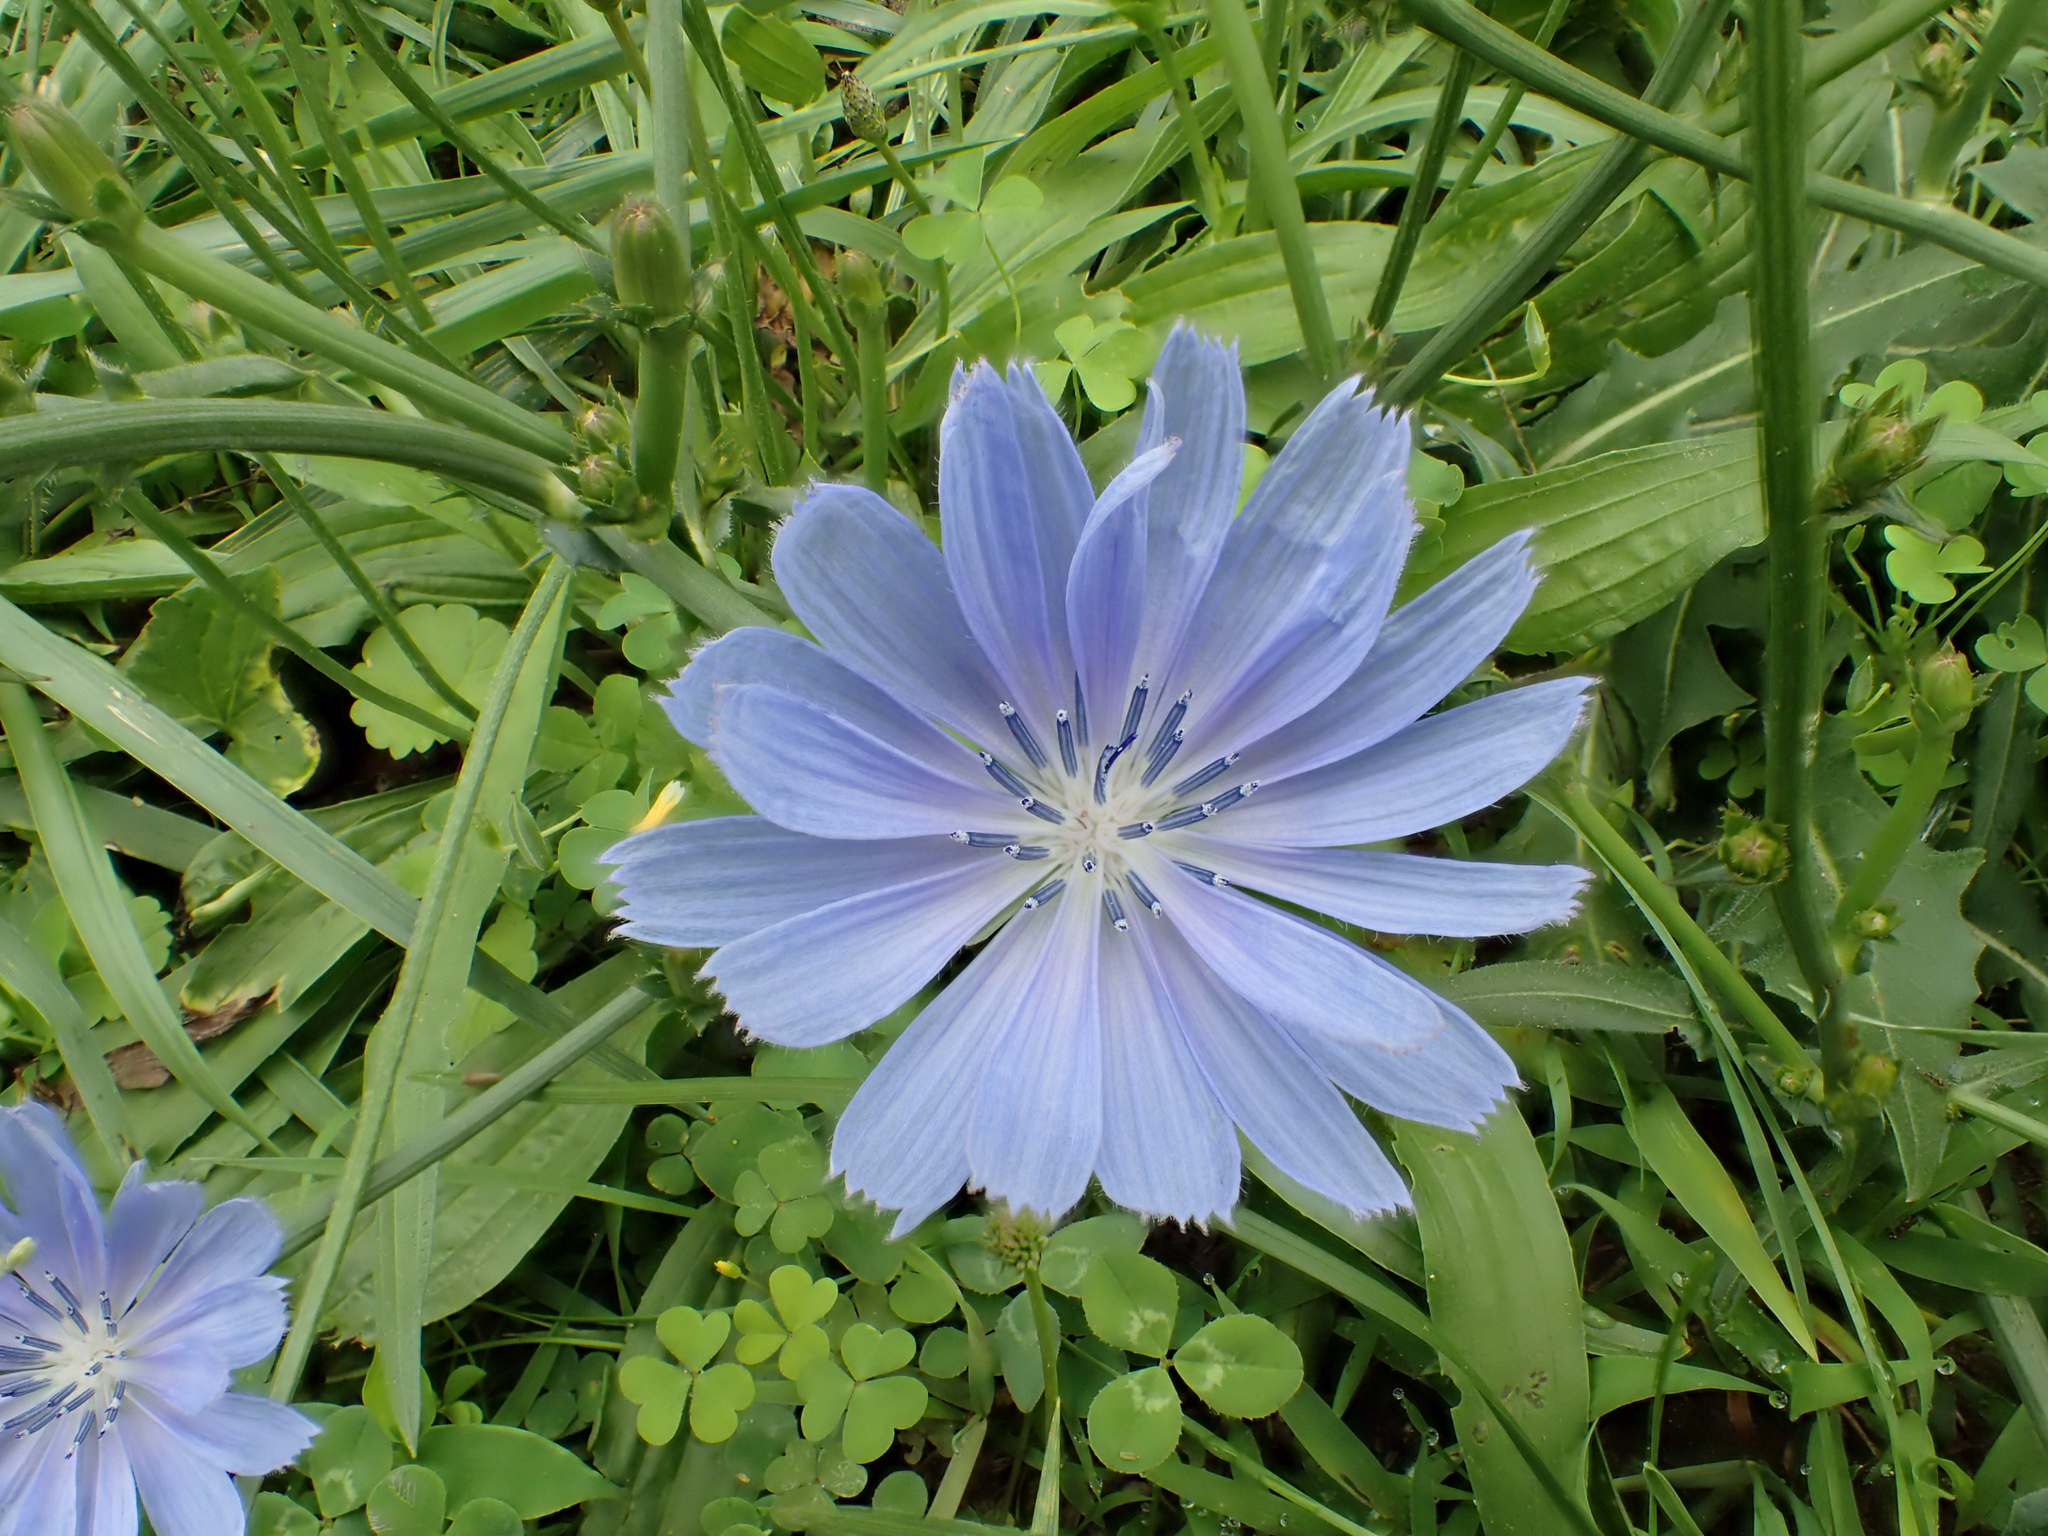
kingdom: Plantae
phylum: Tracheophyta
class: Magnoliopsida
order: Asterales
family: Asteraceae
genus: Cichorium
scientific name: Cichorium intybus
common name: Chicory
